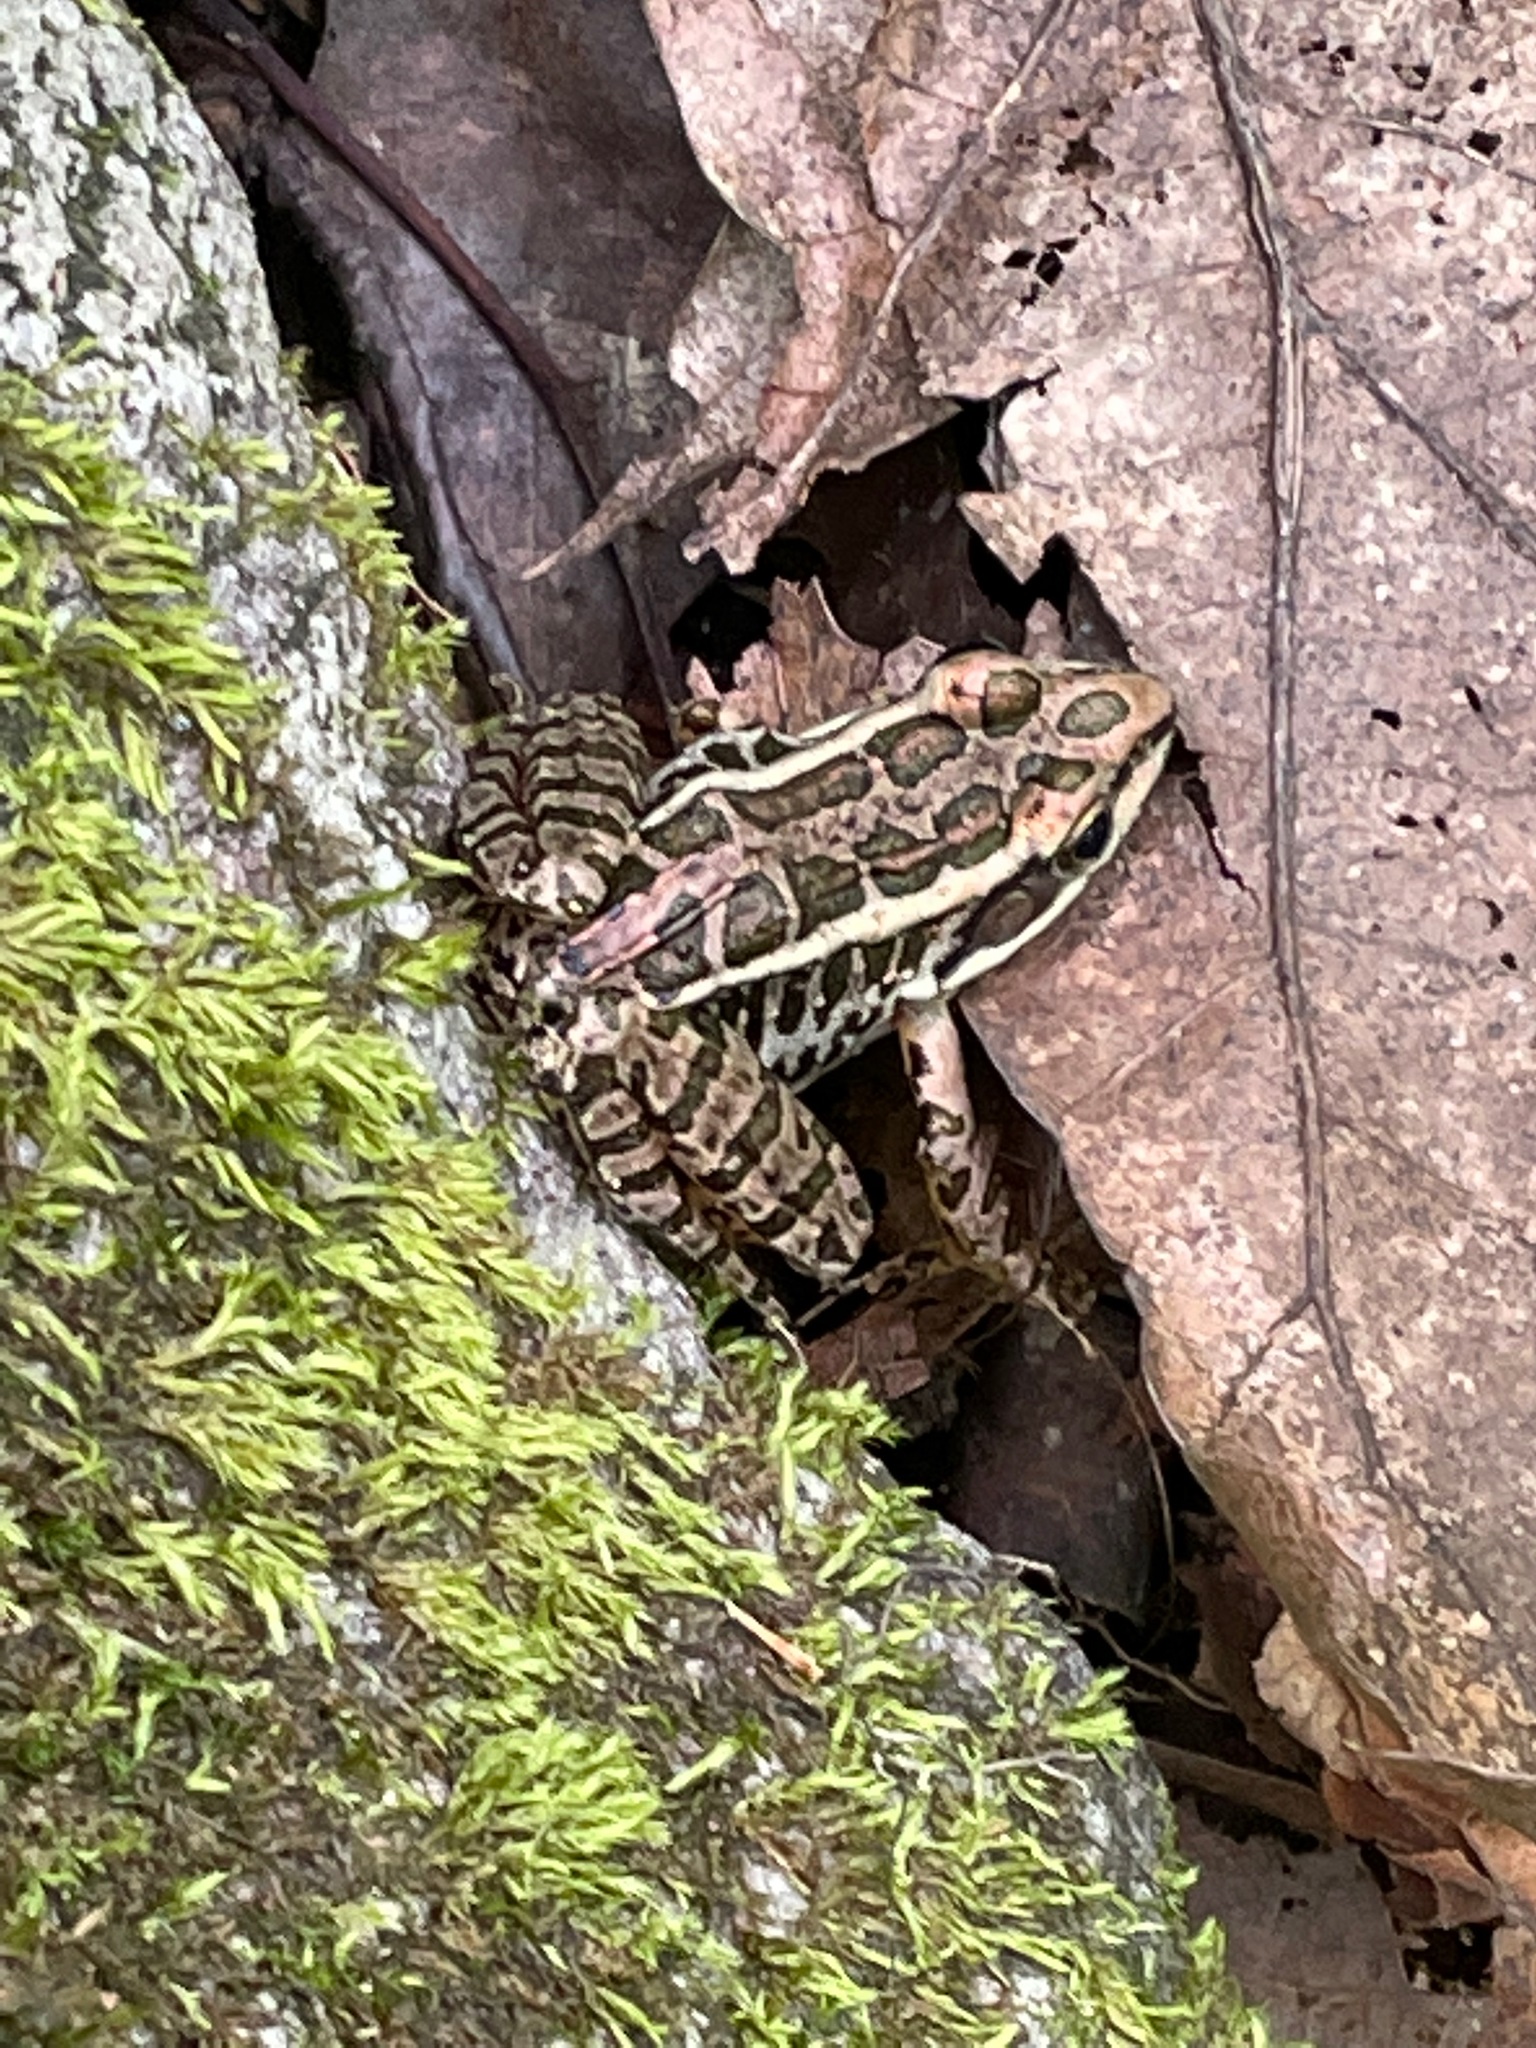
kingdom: Animalia
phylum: Chordata
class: Amphibia
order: Anura
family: Ranidae
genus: Lithobates
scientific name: Lithobates palustris
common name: Pickerel frog
